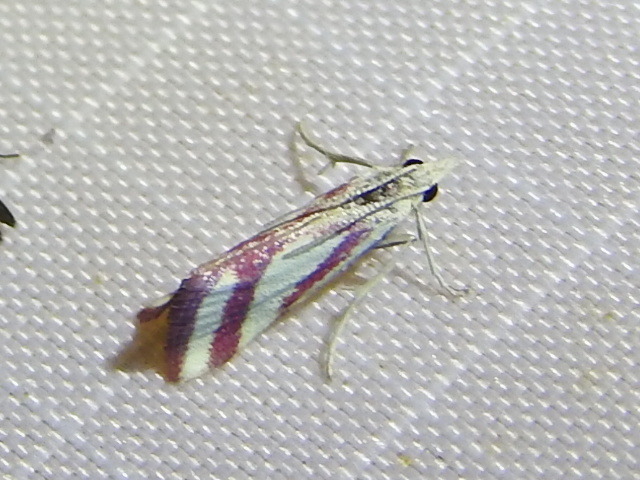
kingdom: Animalia
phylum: Arthropoda
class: Insecta
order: Lepidoptera
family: Crambidae
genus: Microtheoris
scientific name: Microtheoris vibicalis
